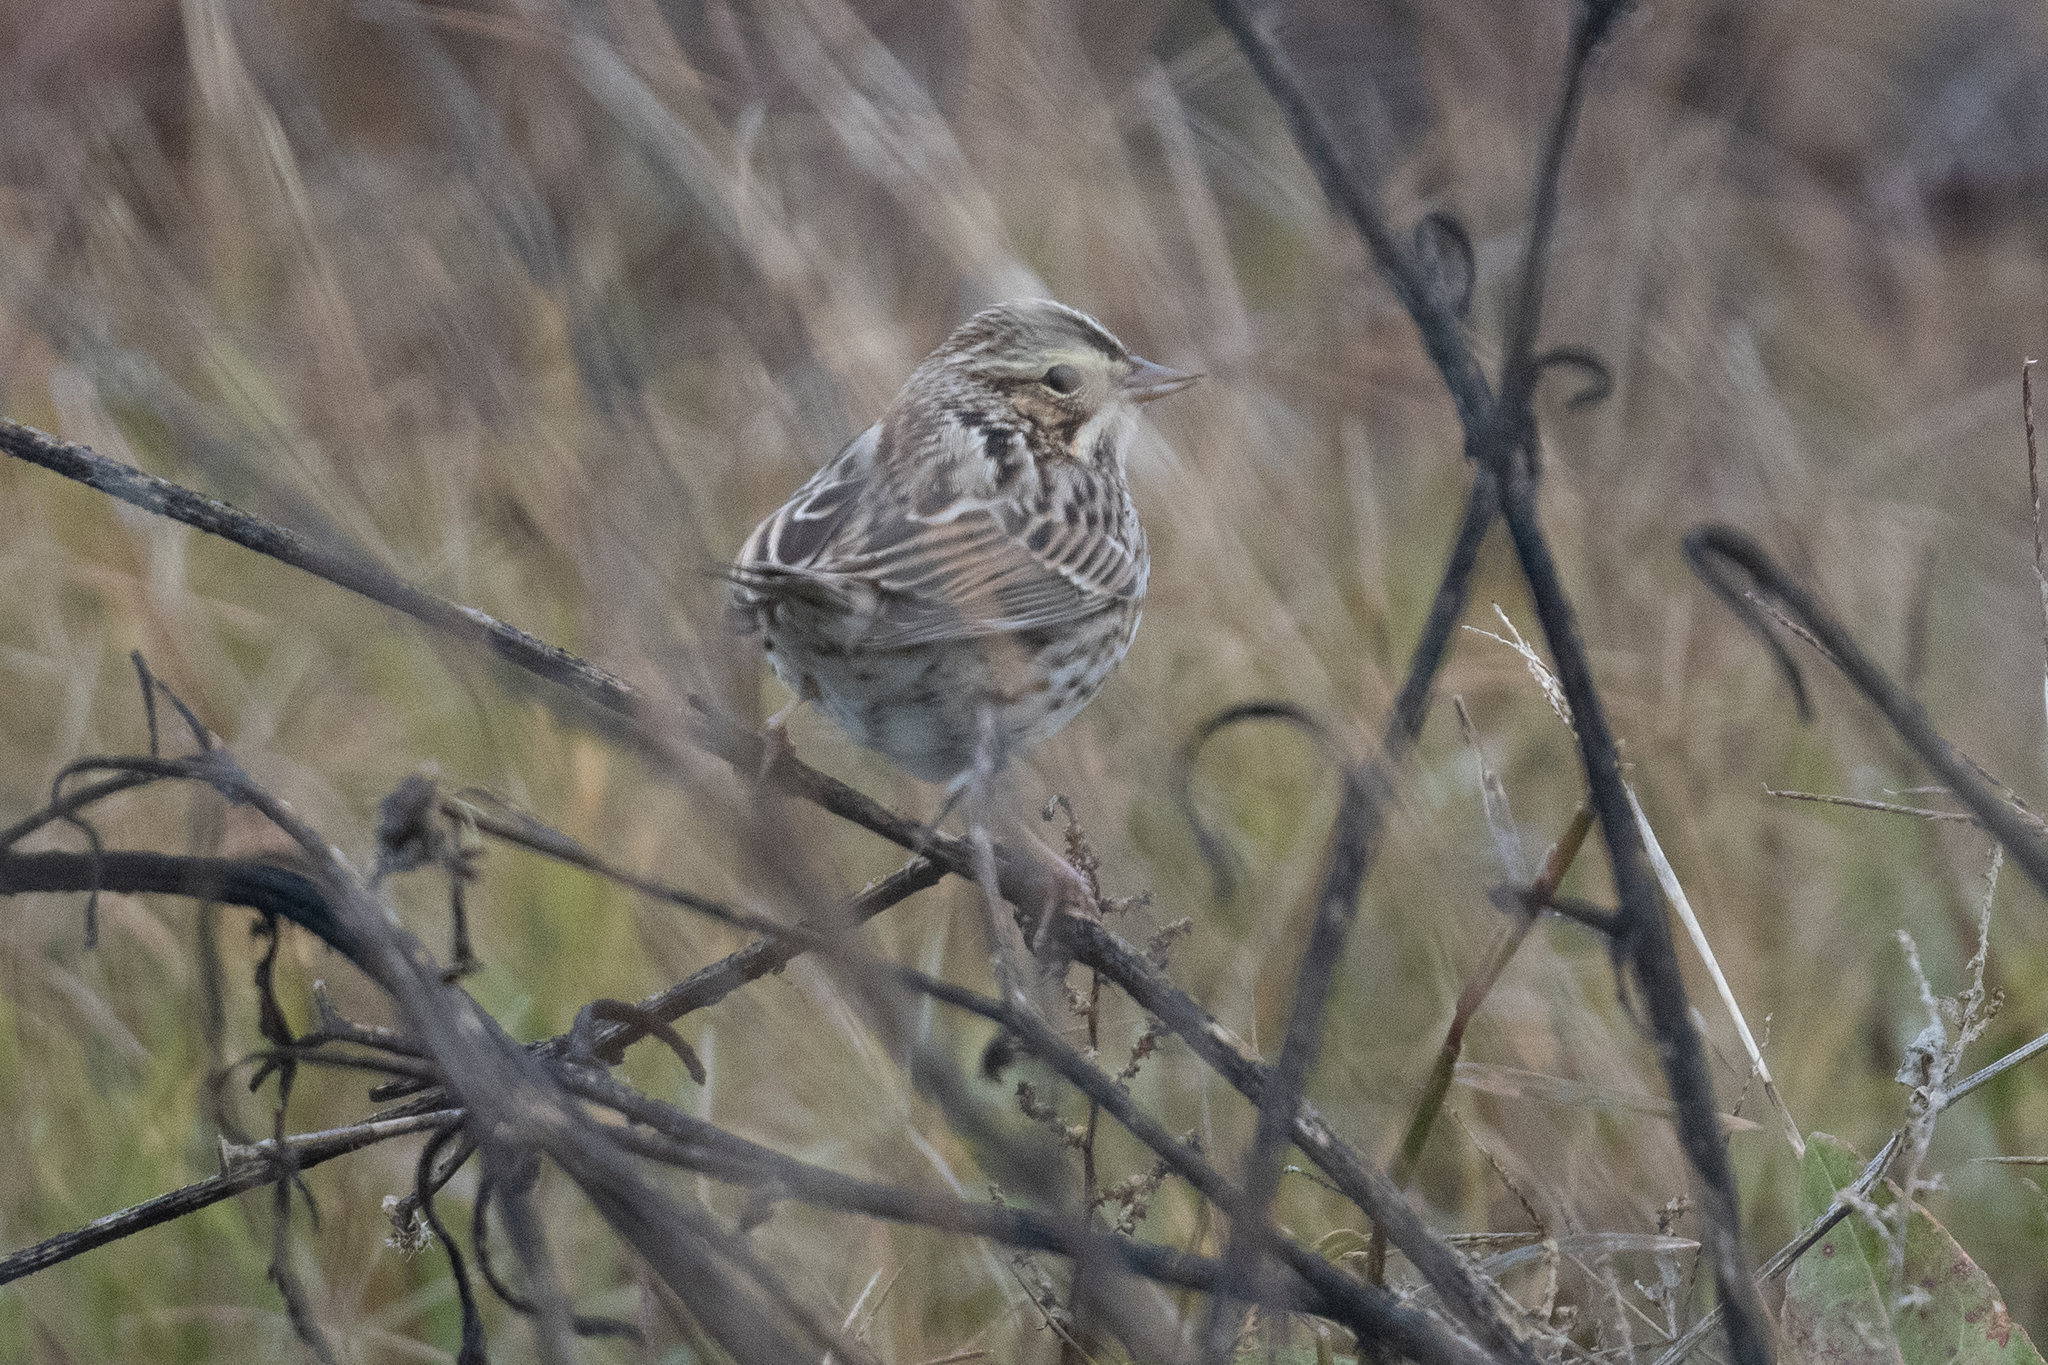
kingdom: Animalia
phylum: Chordata
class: Aves
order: Passeriformes
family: Passerellidae
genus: Passerculus
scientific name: Passerculus sandwichensis
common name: Savannah sparrow
